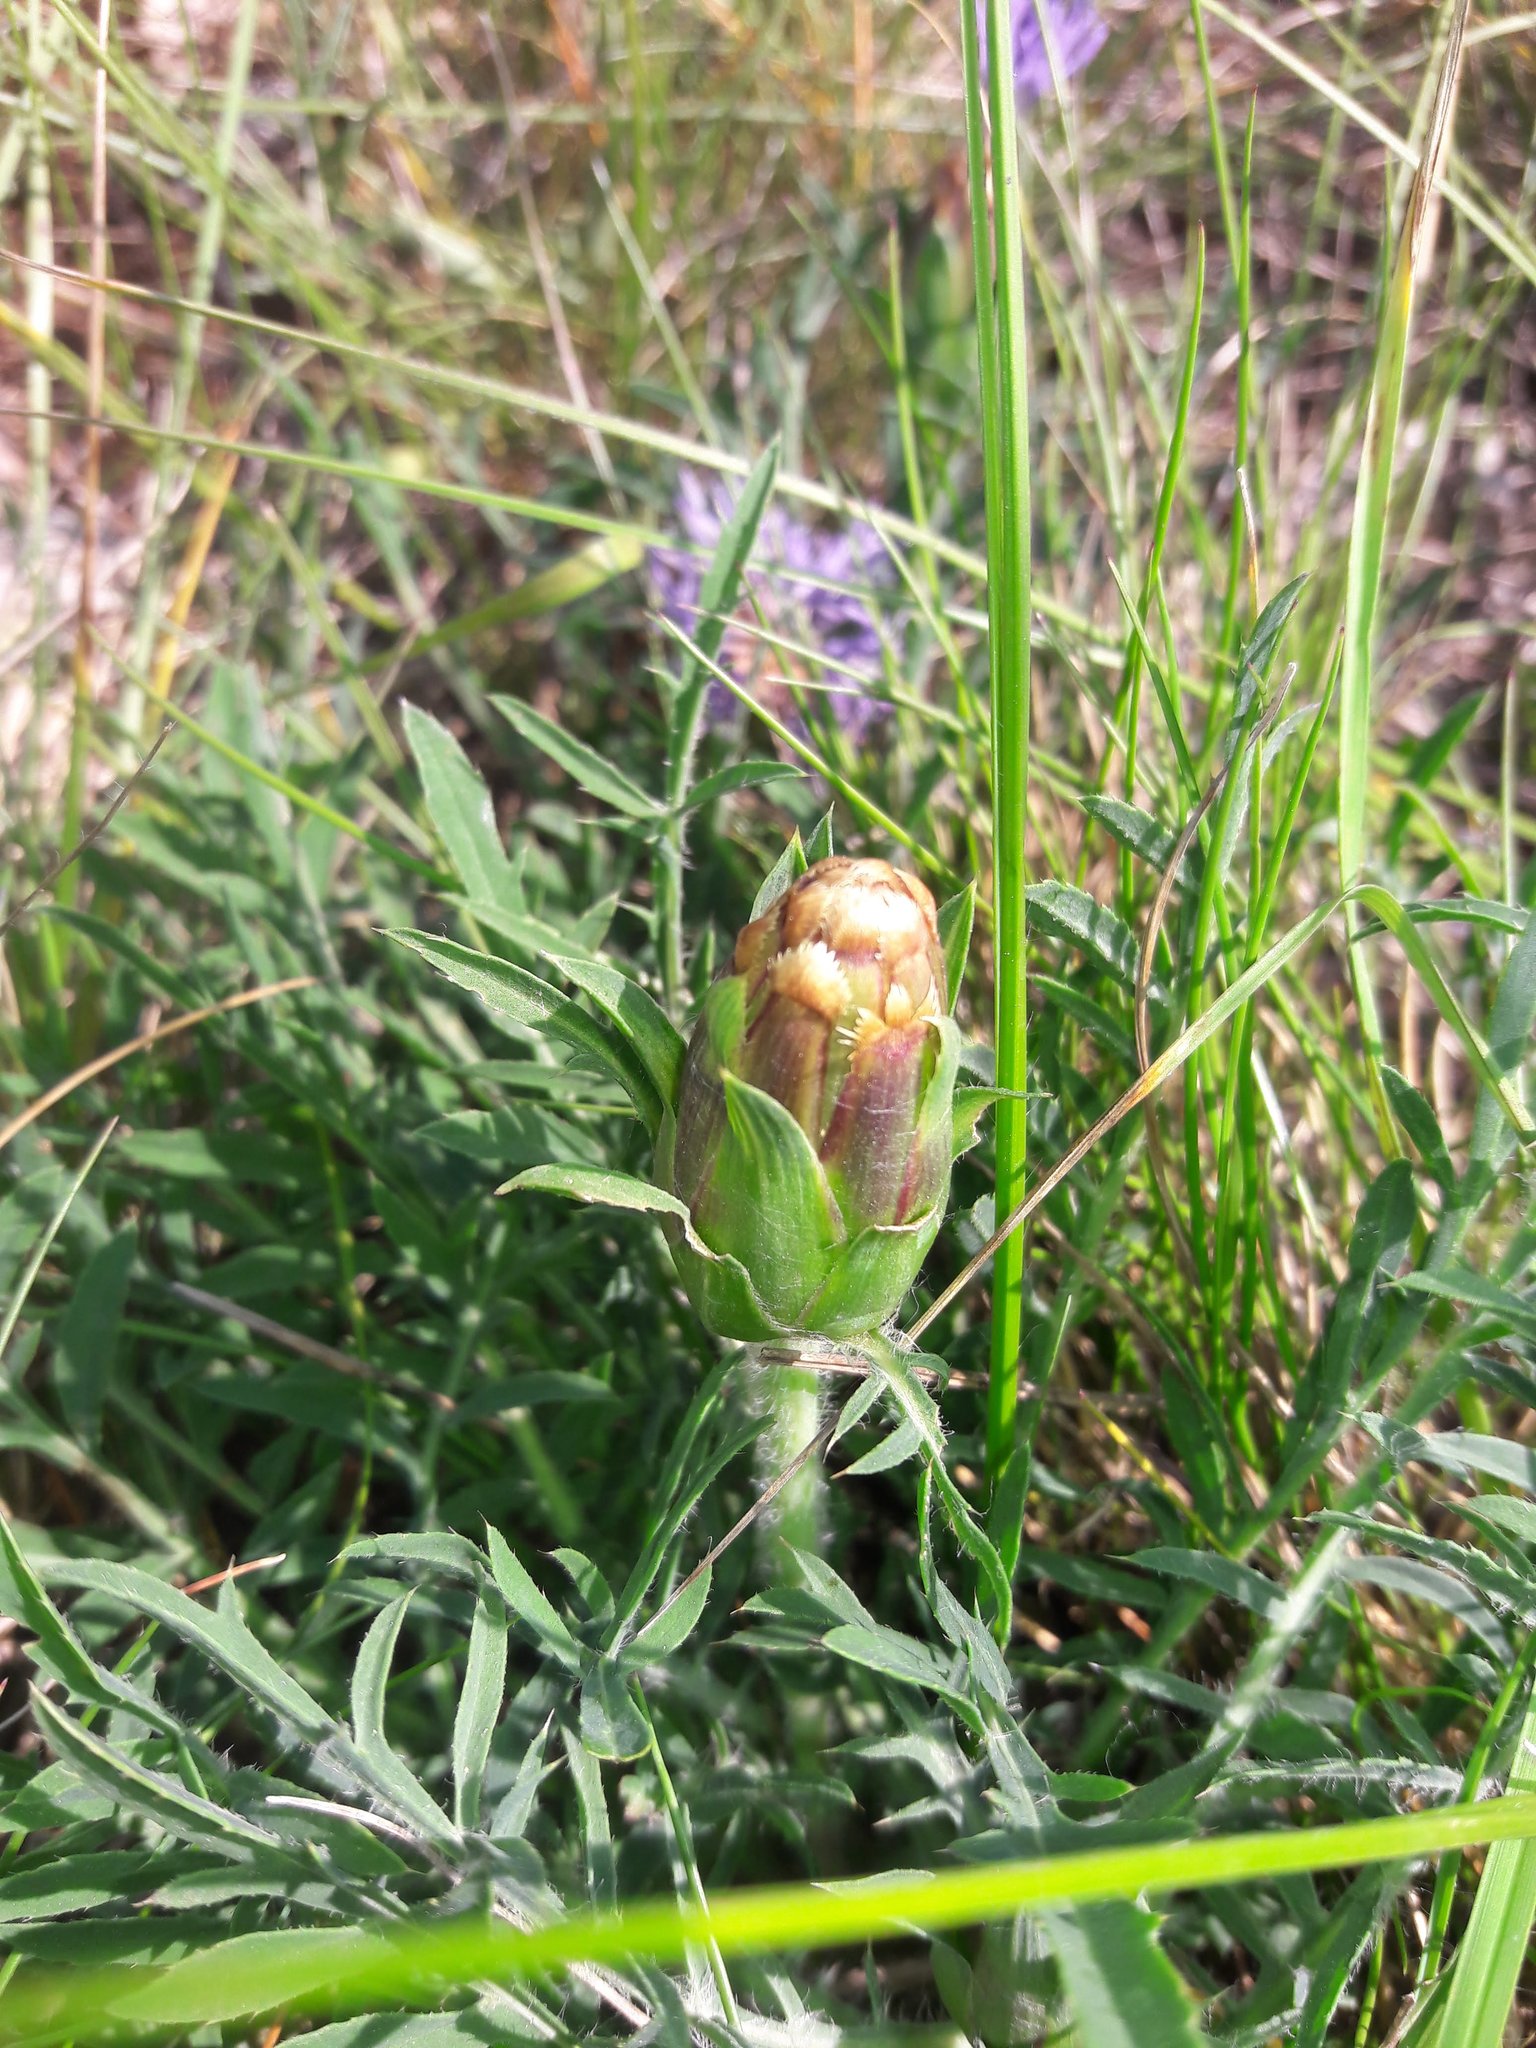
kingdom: Plantae
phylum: Tracheophyta
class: Magnoliopsida
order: Asterales
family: Asteraceae
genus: Carduncellus
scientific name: Carduncellus mitissimus
